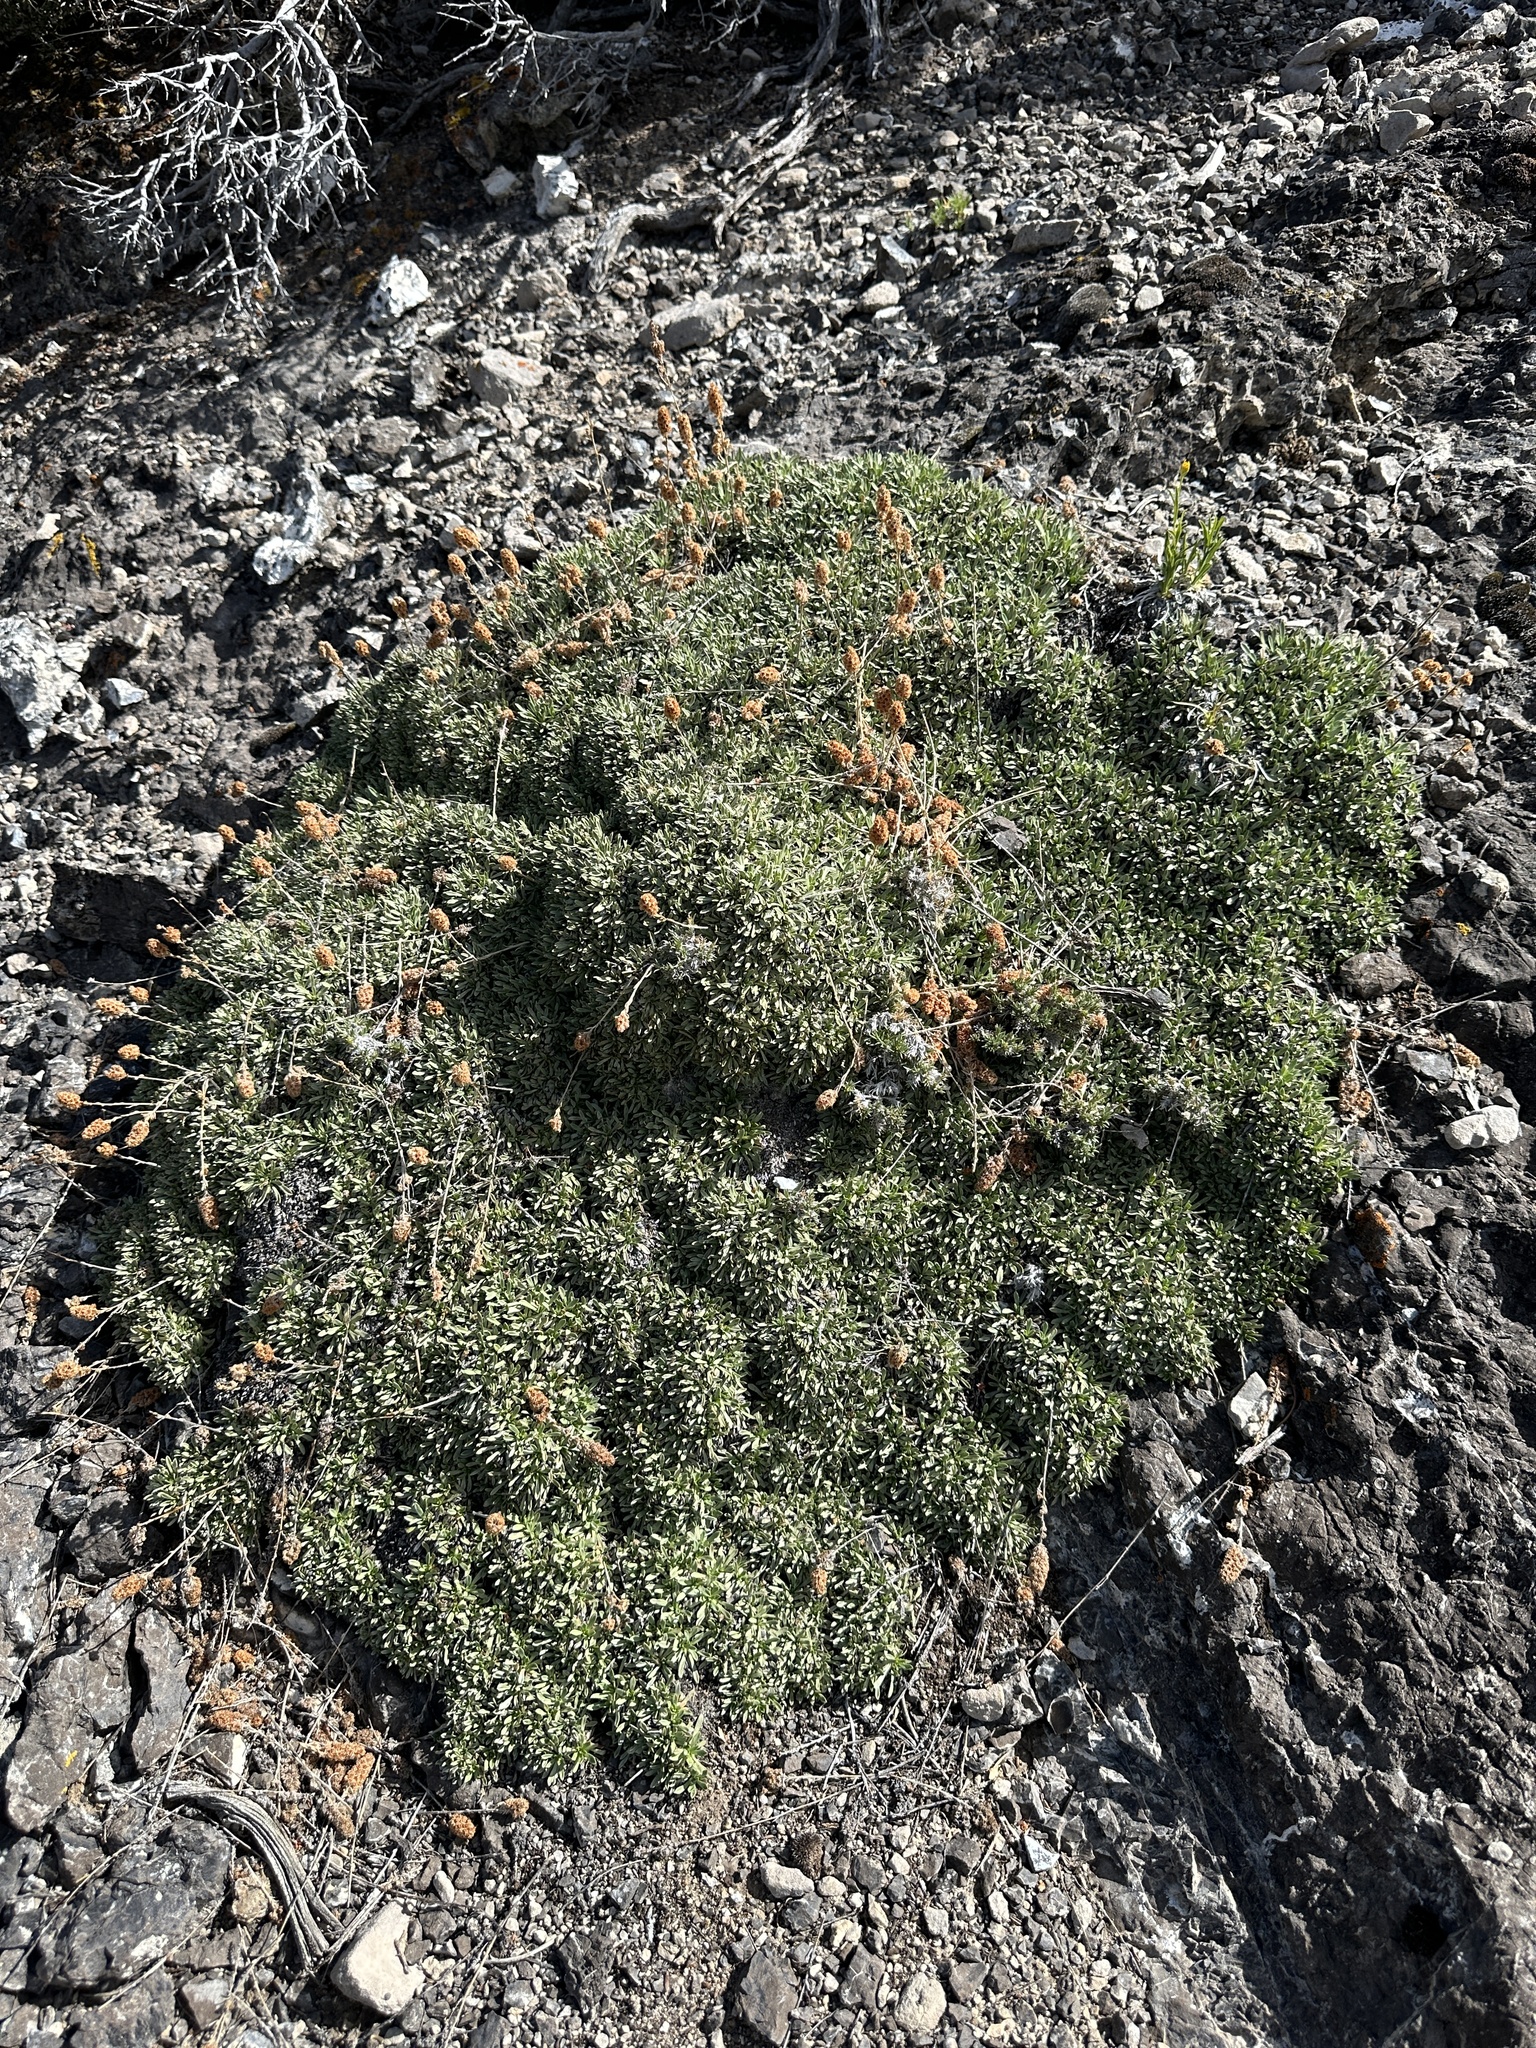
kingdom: Plantae
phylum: Tracheophyta
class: Magnoliopsida
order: Rosales
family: Rosaceae
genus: Petrophytum
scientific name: Petrophytum caespitosum
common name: Mat rockspirea
